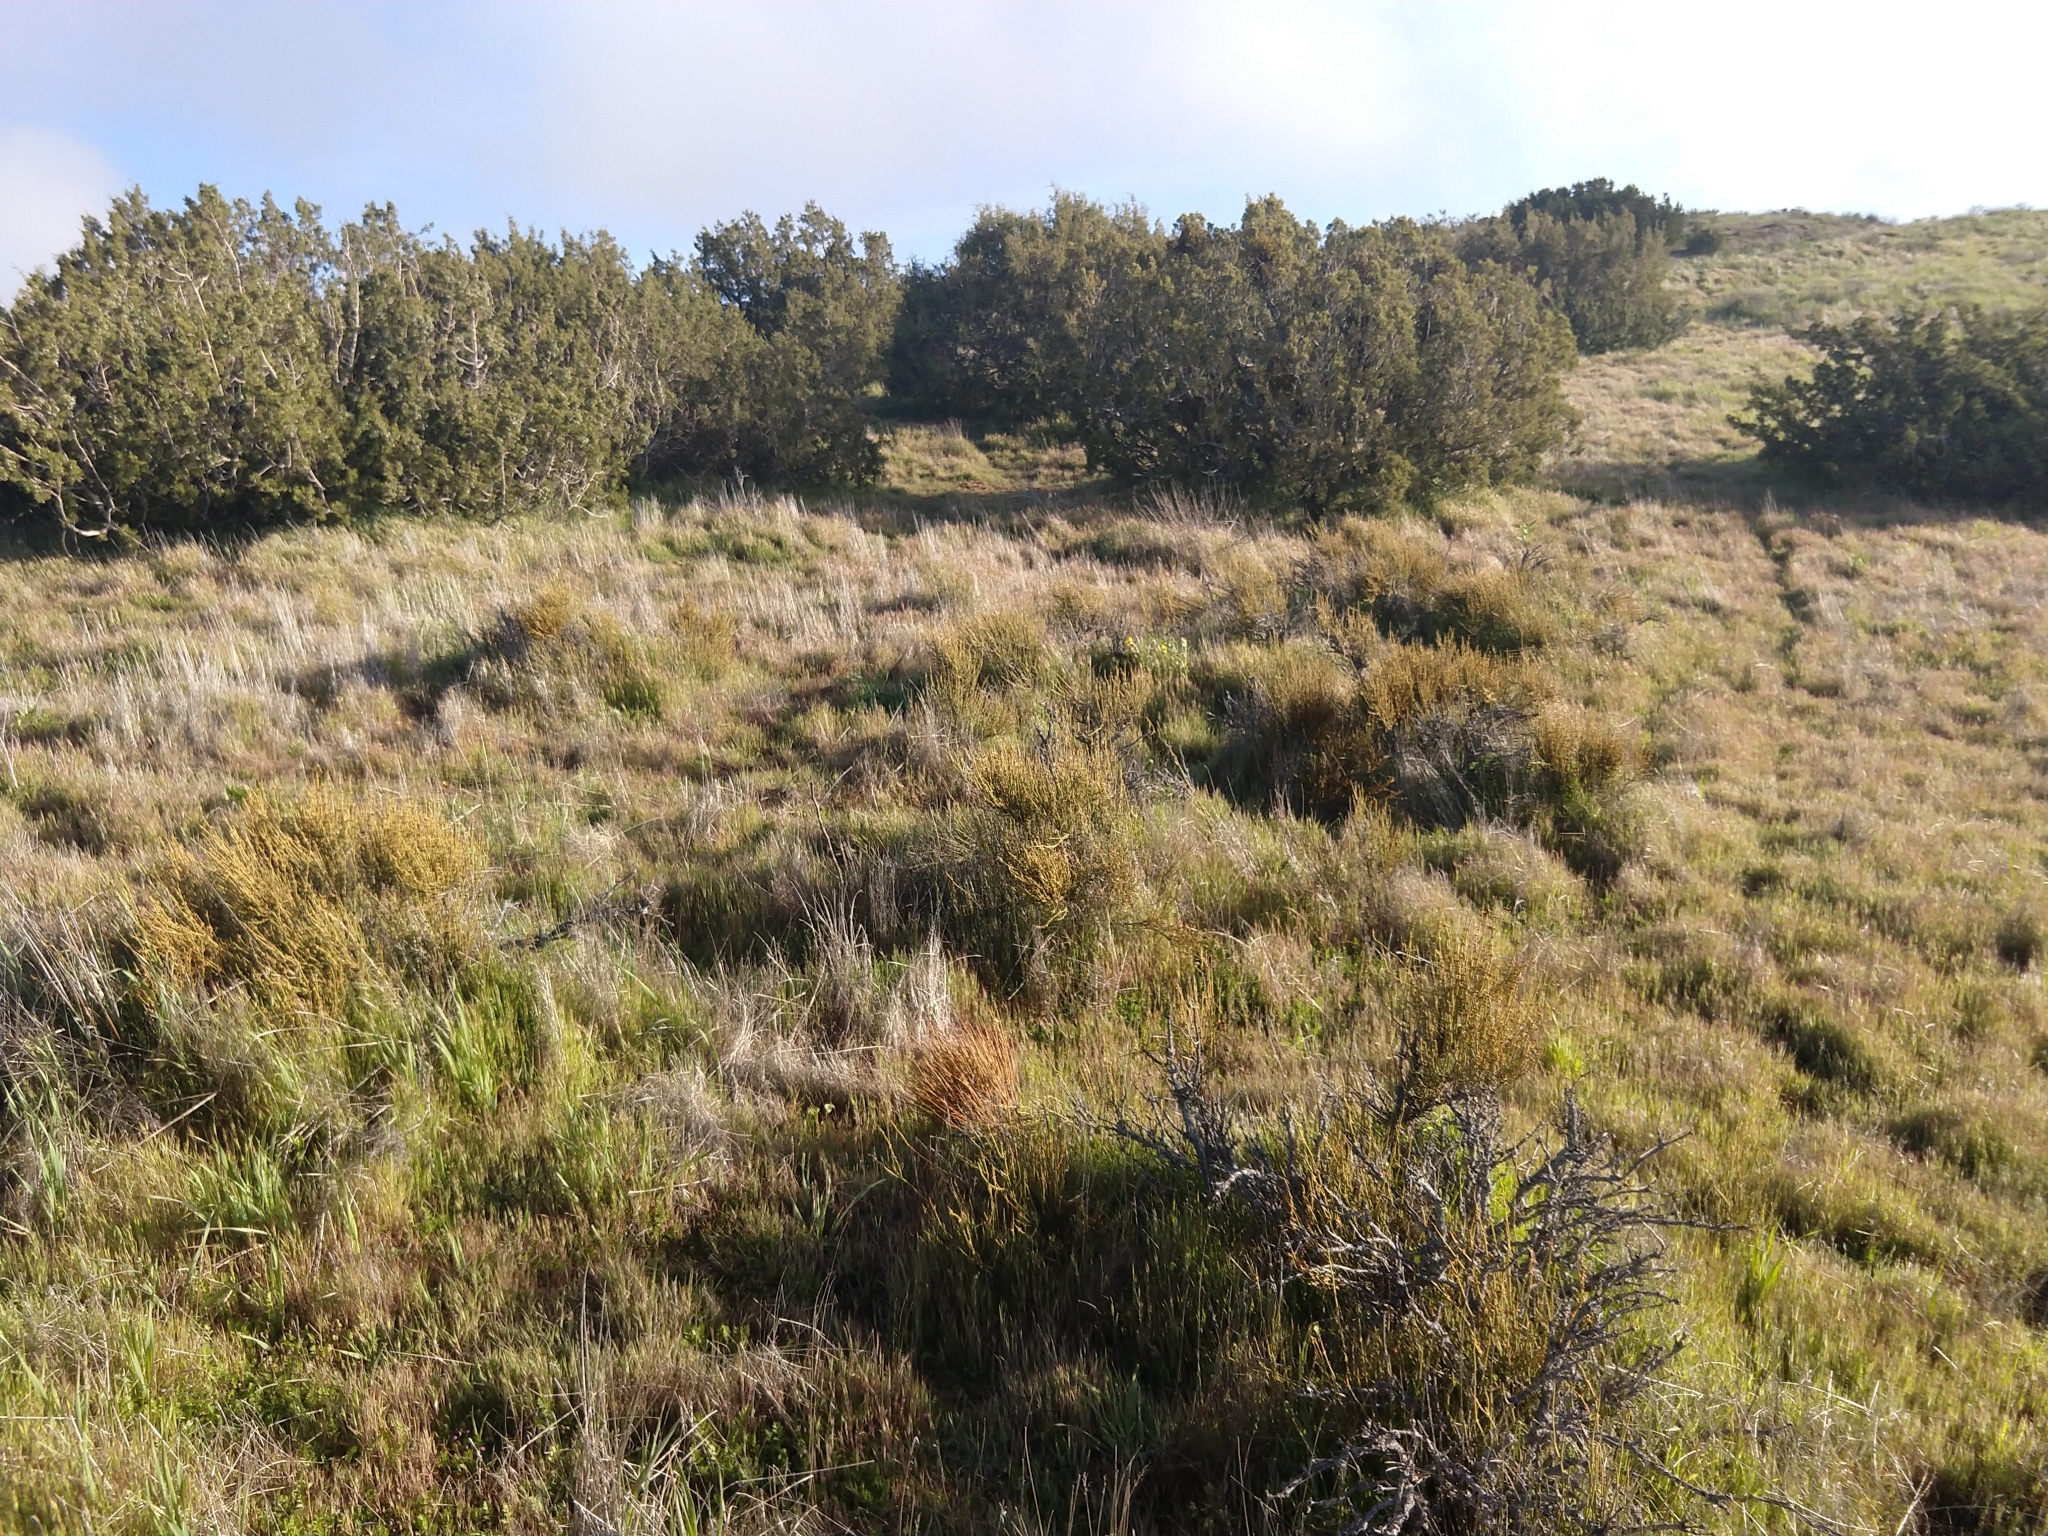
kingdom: Plantae
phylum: Tracheophyta
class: Gnetopsida
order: Ephedrales
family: Ephedraceae
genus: Ephedra
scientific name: Ephedra viridis
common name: Green ephedra
